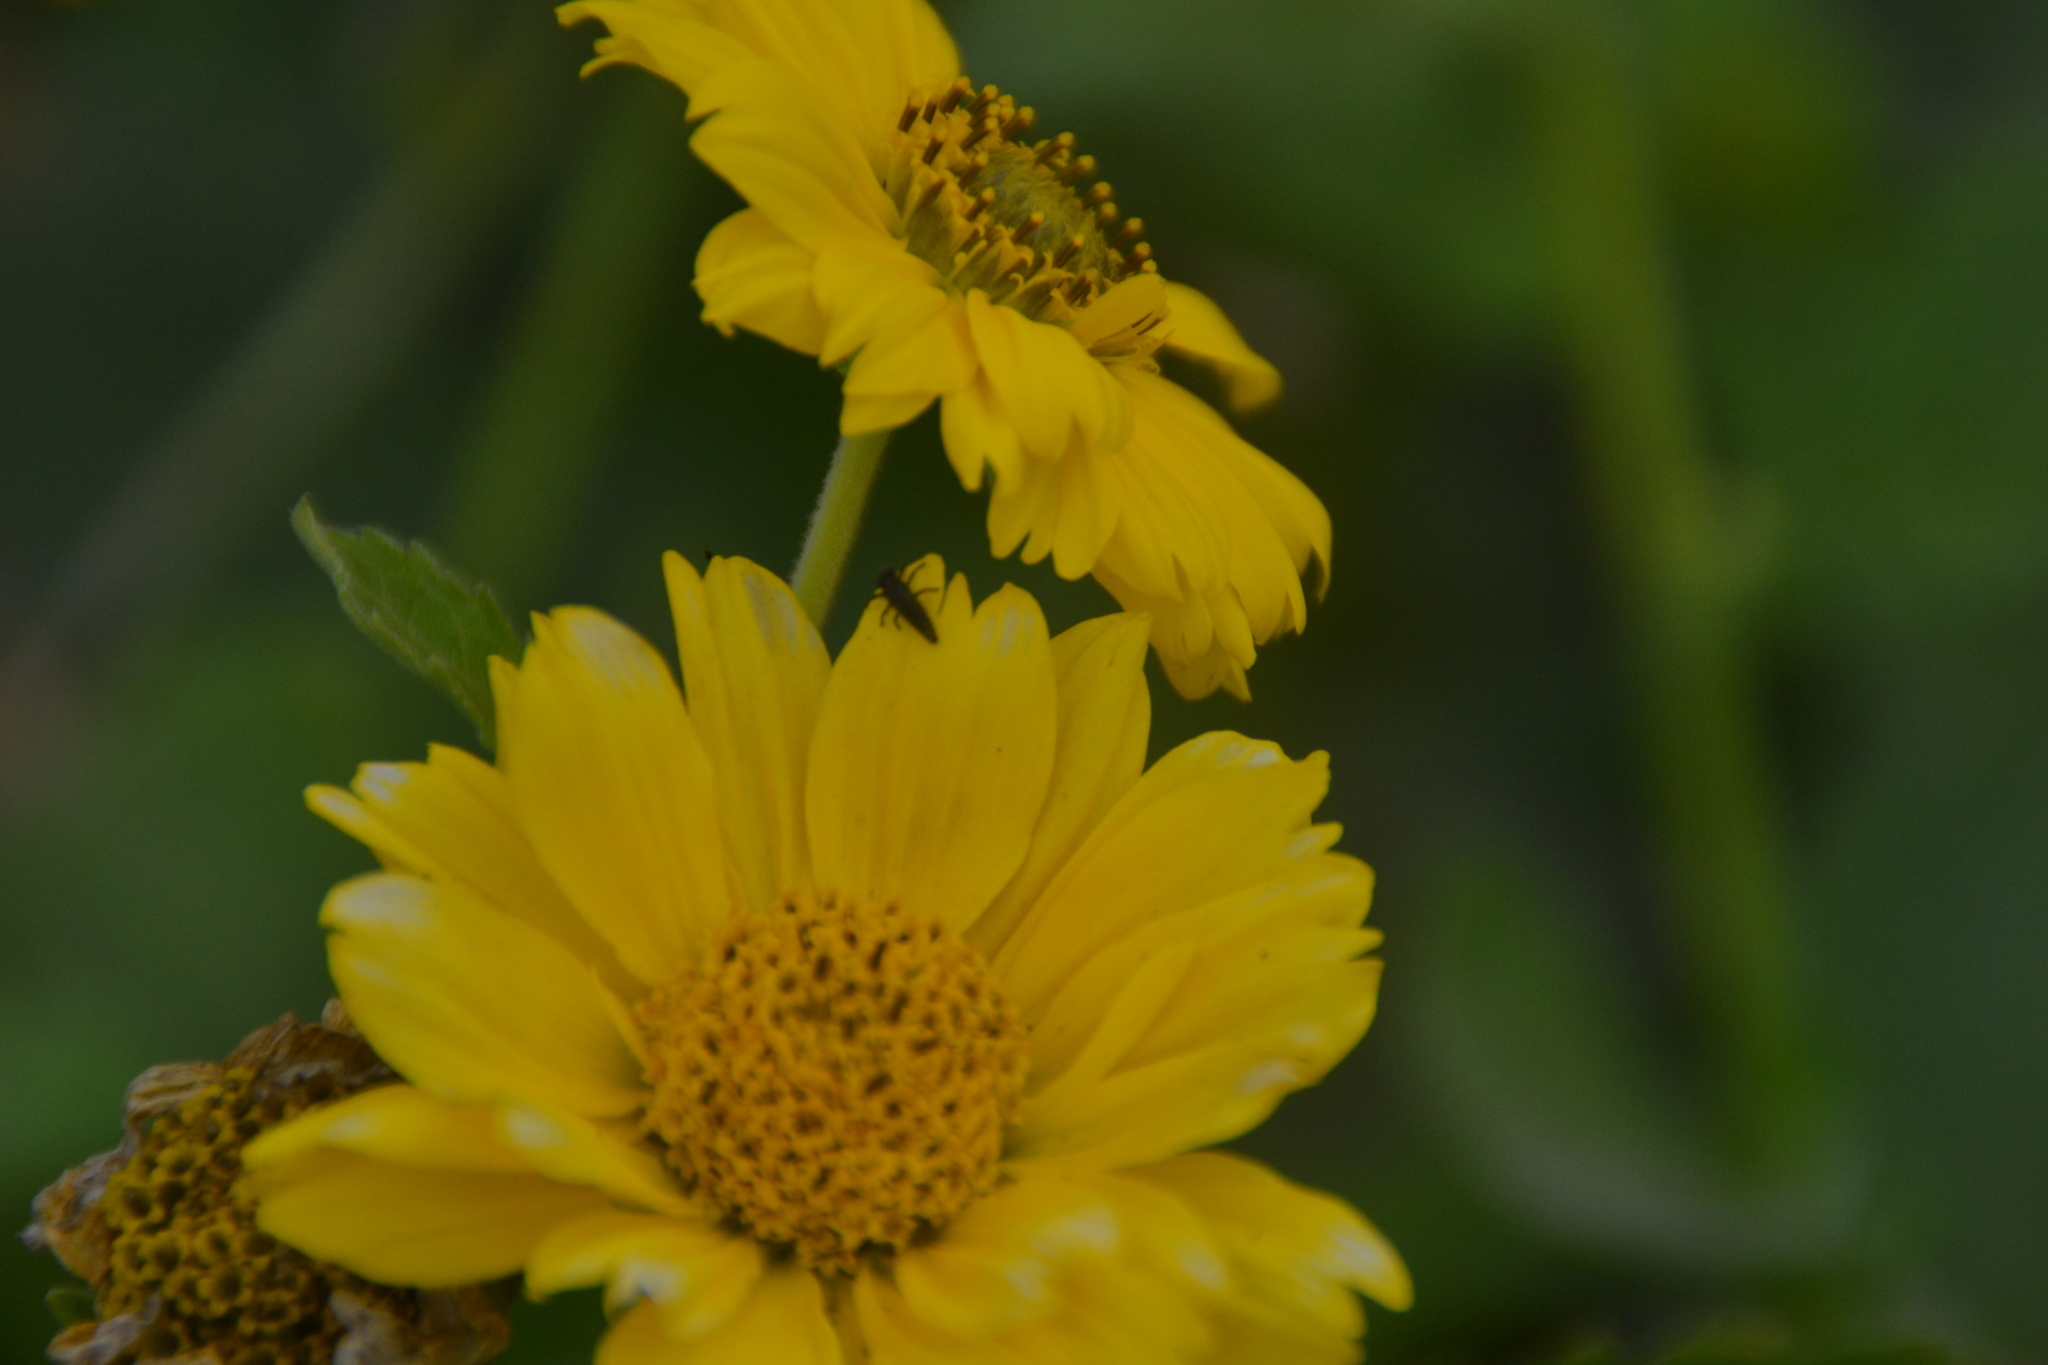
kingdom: Animalia
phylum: Arthropoda
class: Insecta
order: Coleoptera
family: Coccinellidae
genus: Harmonia
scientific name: Harmonia axyridis
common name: Harlequin ladybird
